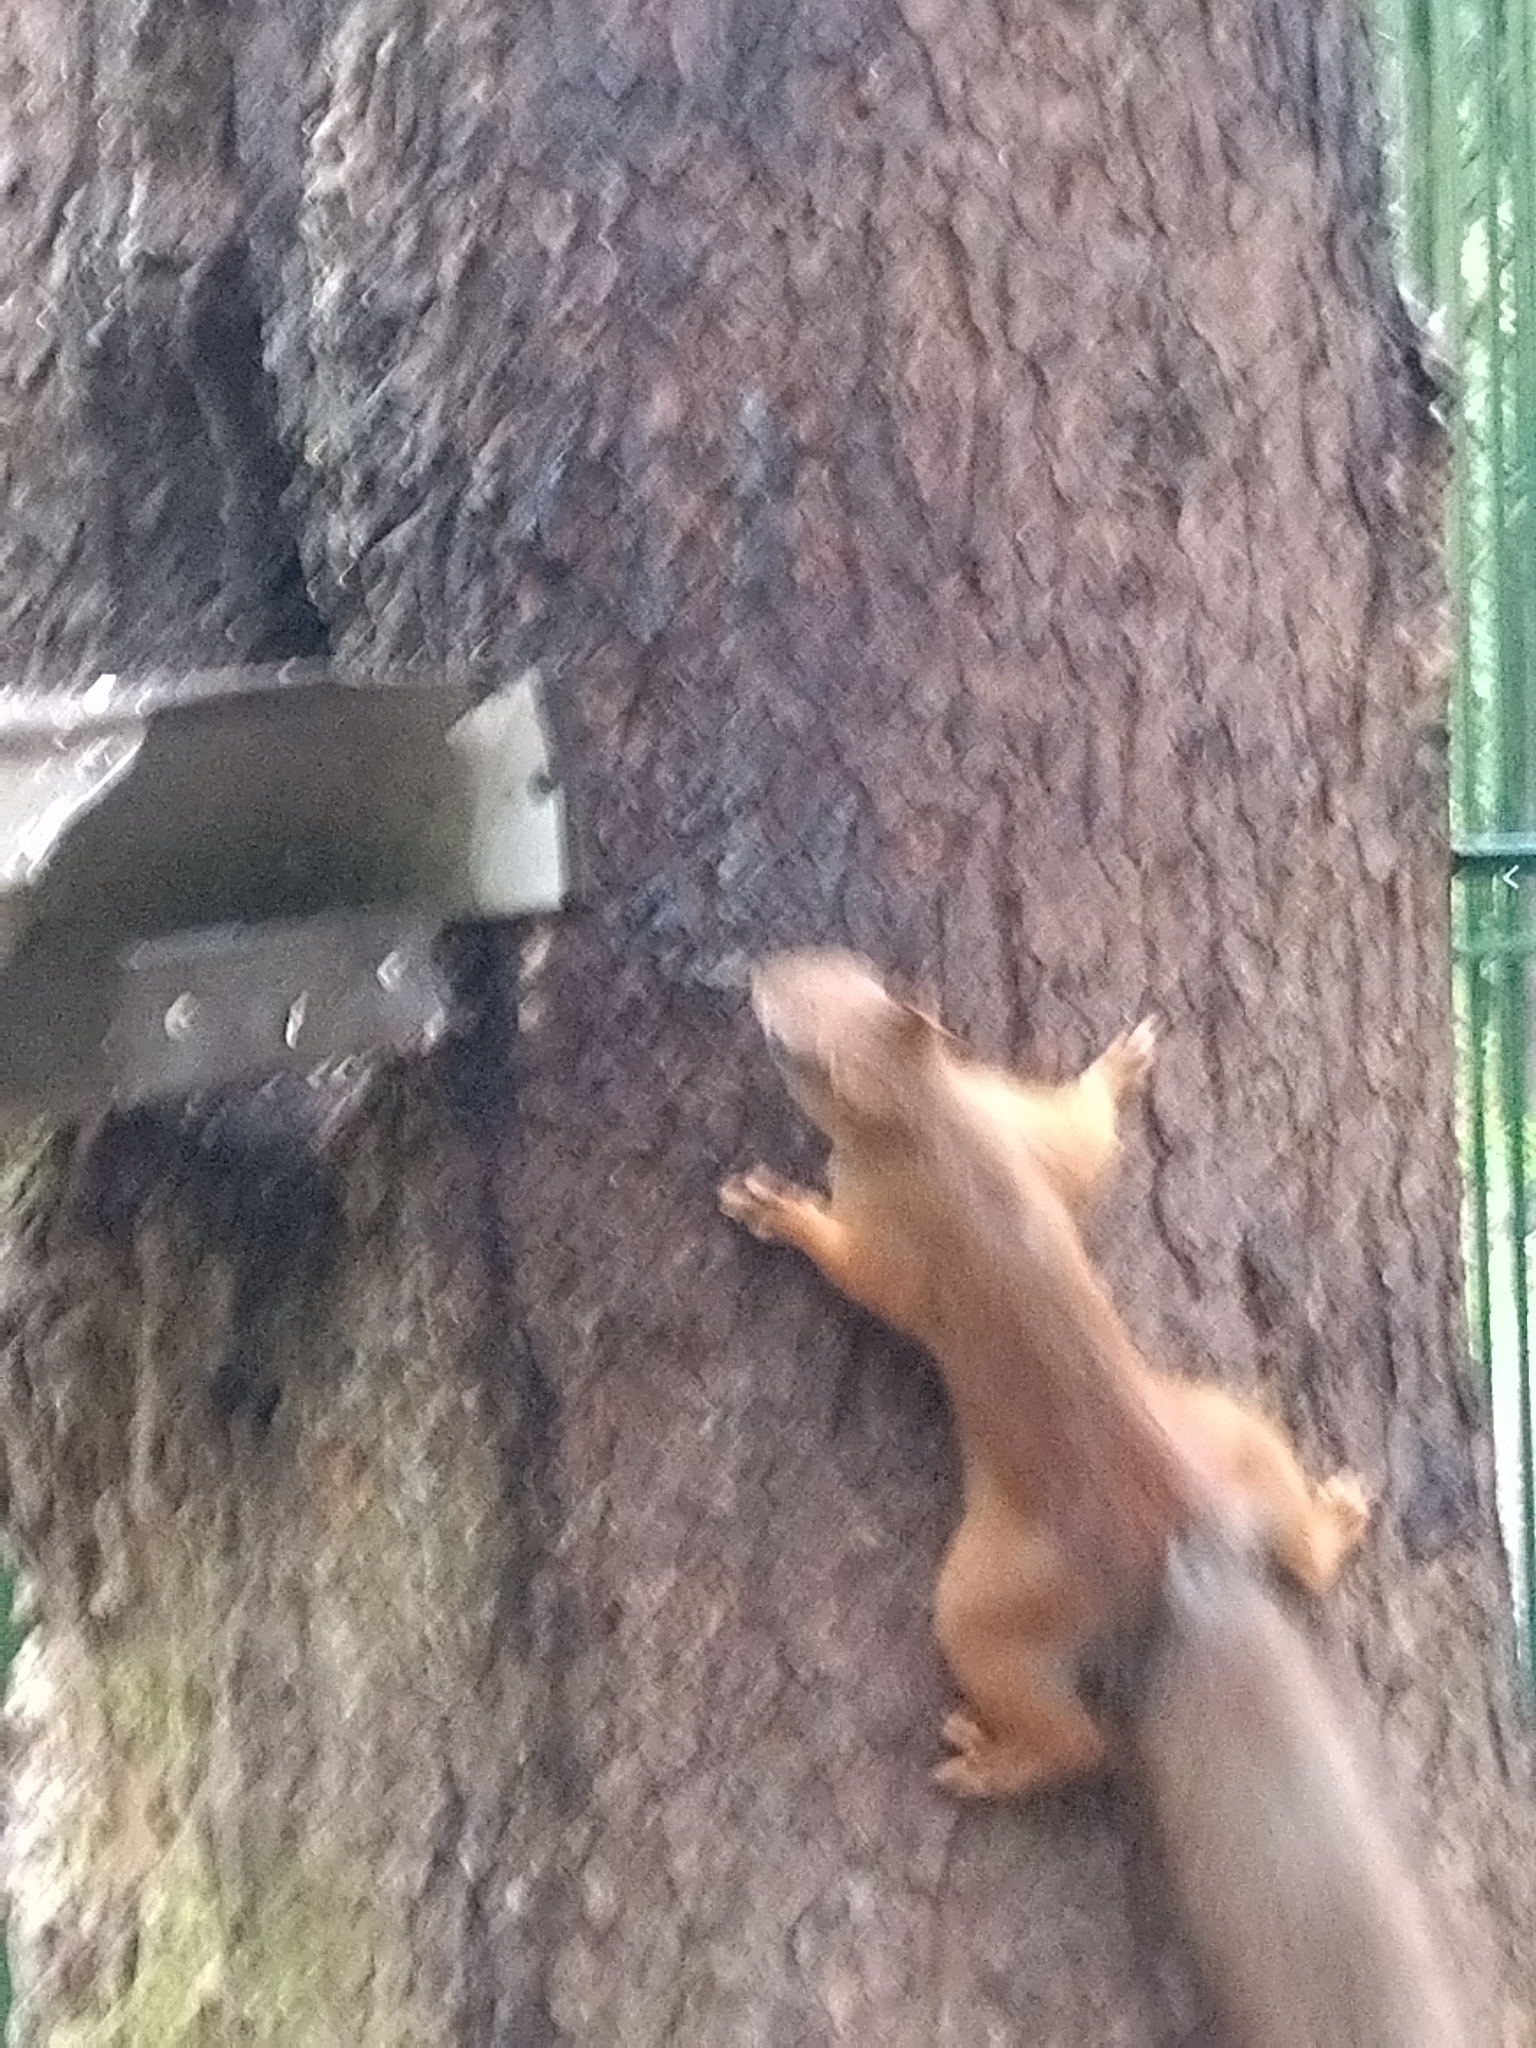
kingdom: Animalia
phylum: Chordata
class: Mammalia
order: Rodentia
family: Sciuridae
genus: Sciurus
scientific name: Sciurus vulgaris
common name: Eurasian red squirrel
